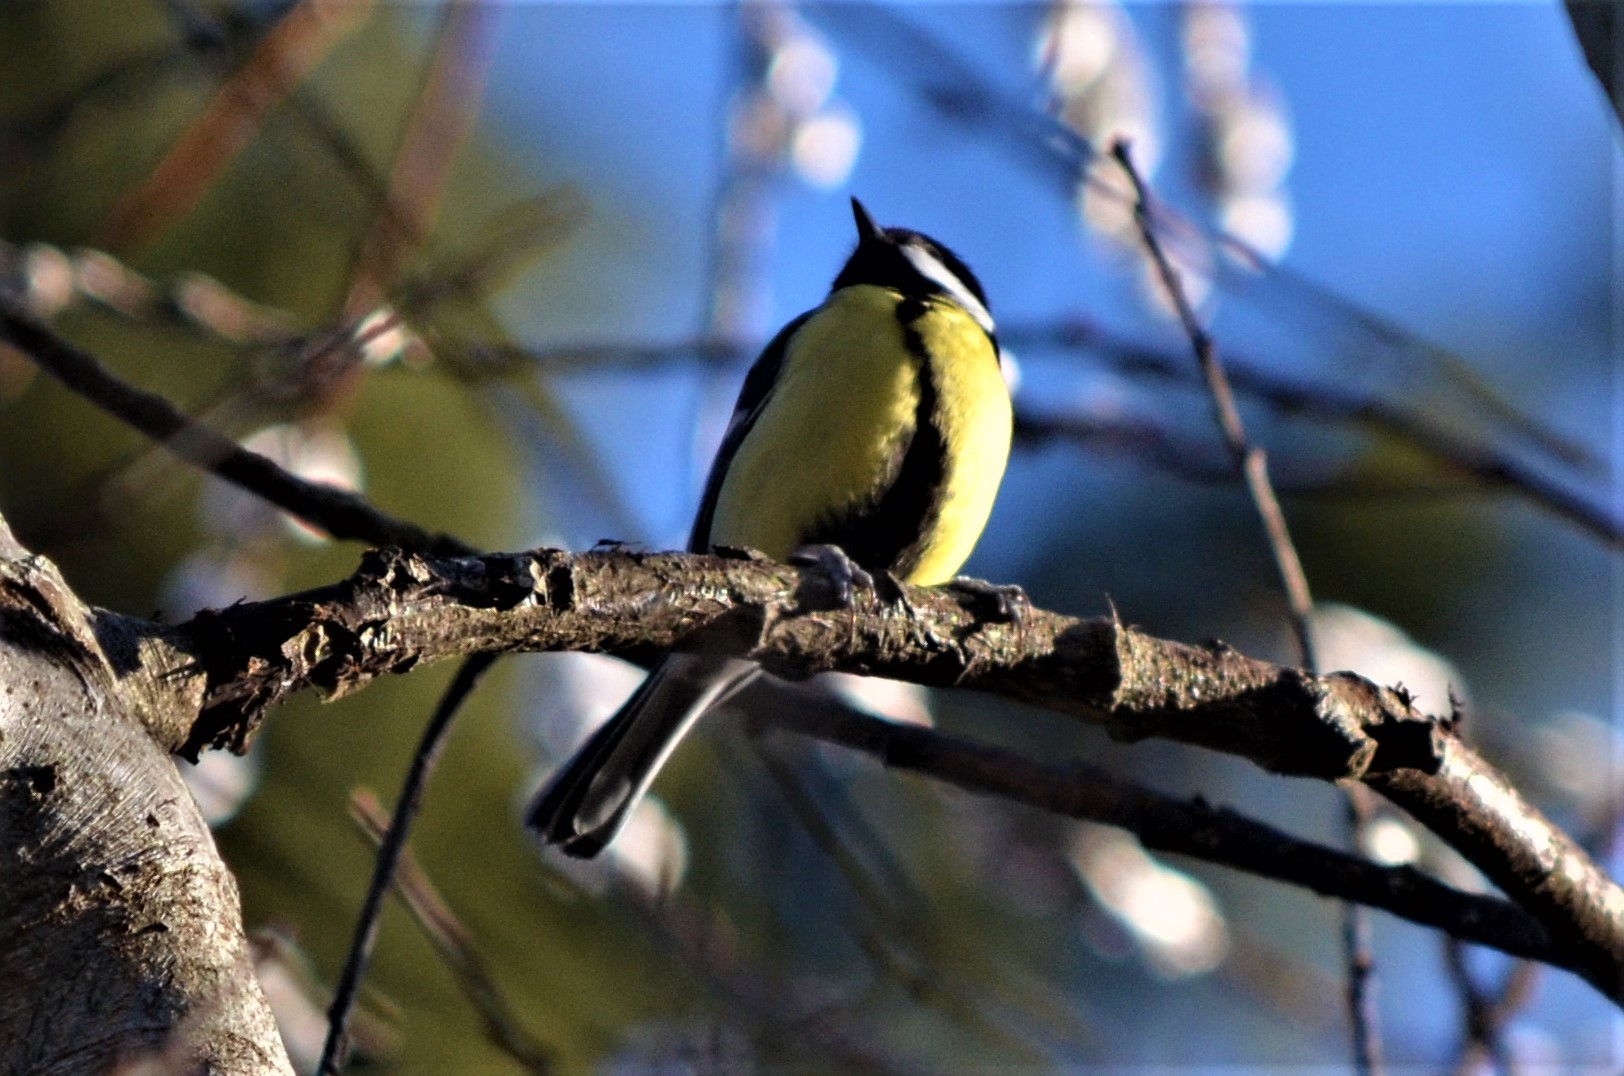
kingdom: Animalia
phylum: Chordata
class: Aves
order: Passeriformes
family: Paridae
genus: Parus
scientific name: Parus major
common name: Great tit
